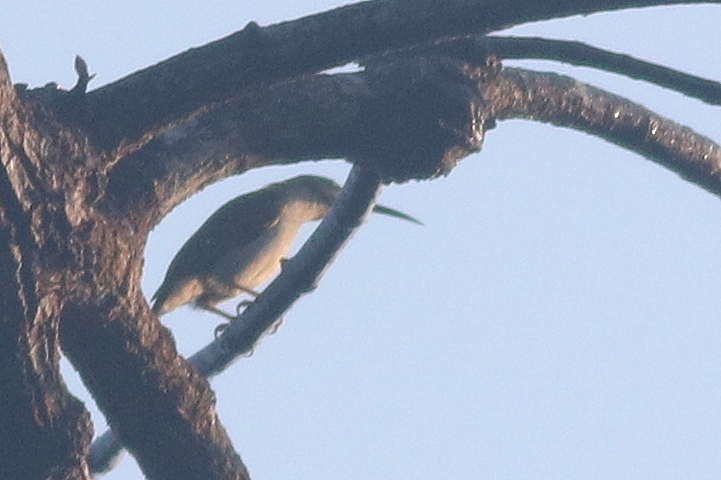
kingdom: Animalia
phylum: Chordata
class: Aves
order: Passeriformes
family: Nectariniidae
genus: Arachnothera
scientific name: Arachnothera modesta
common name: Grey-breasted spiderhunter
